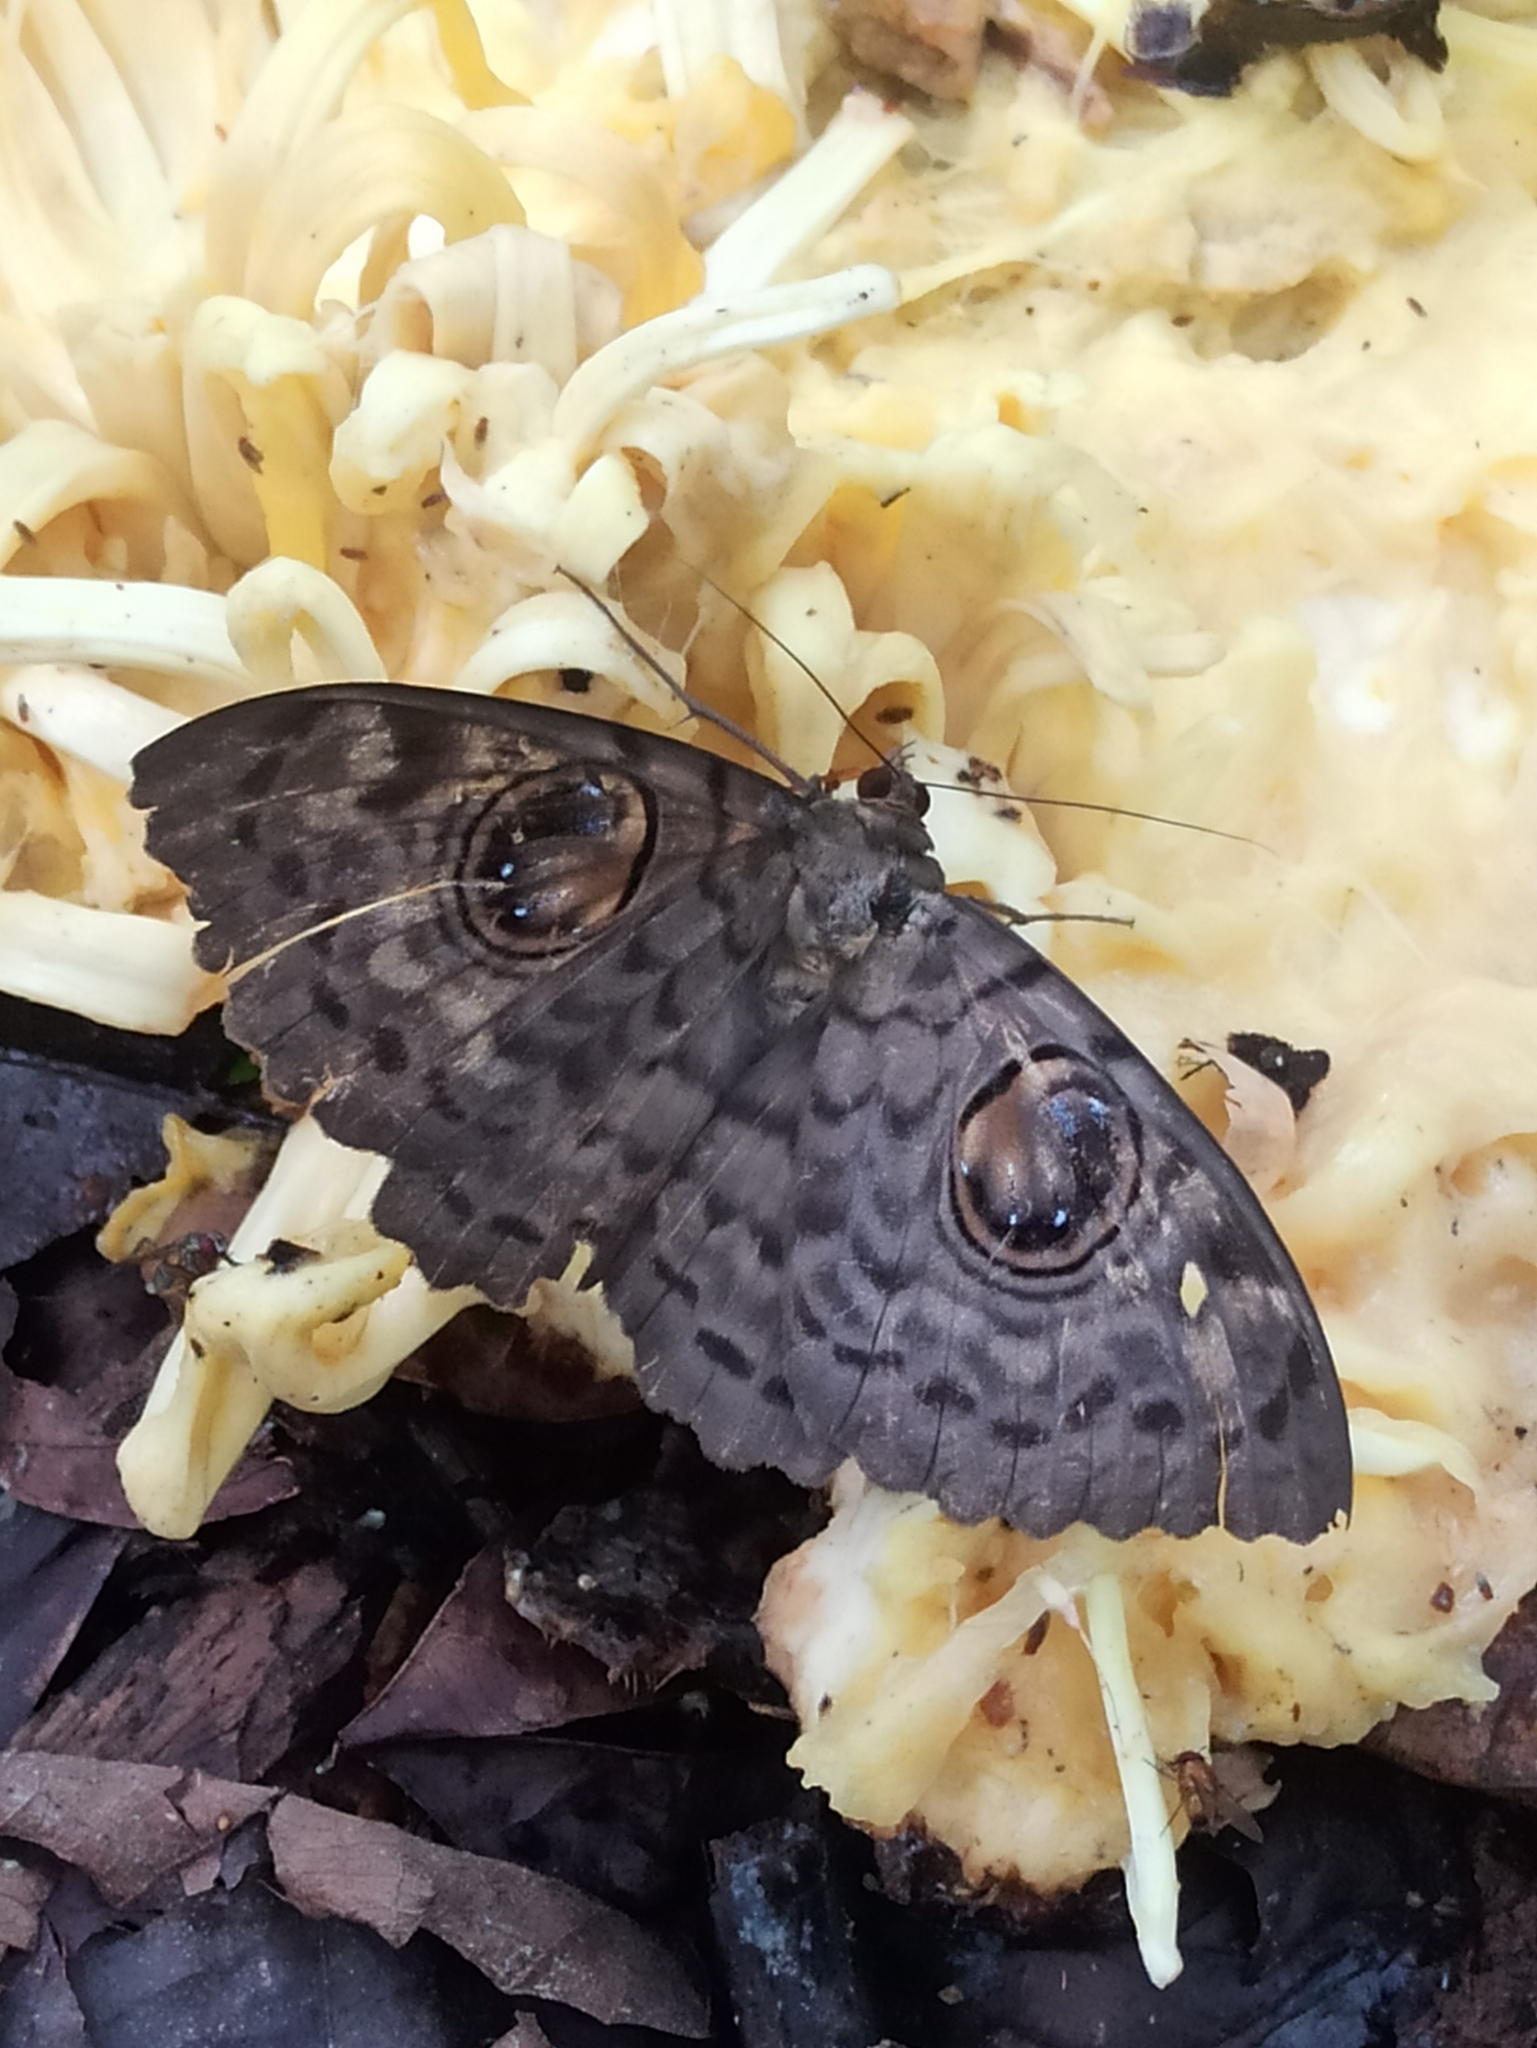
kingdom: Animalia
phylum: Arthropoda
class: Insecta
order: Lepidoptera
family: Erebidae
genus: Erebus
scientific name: Erebus macrops
